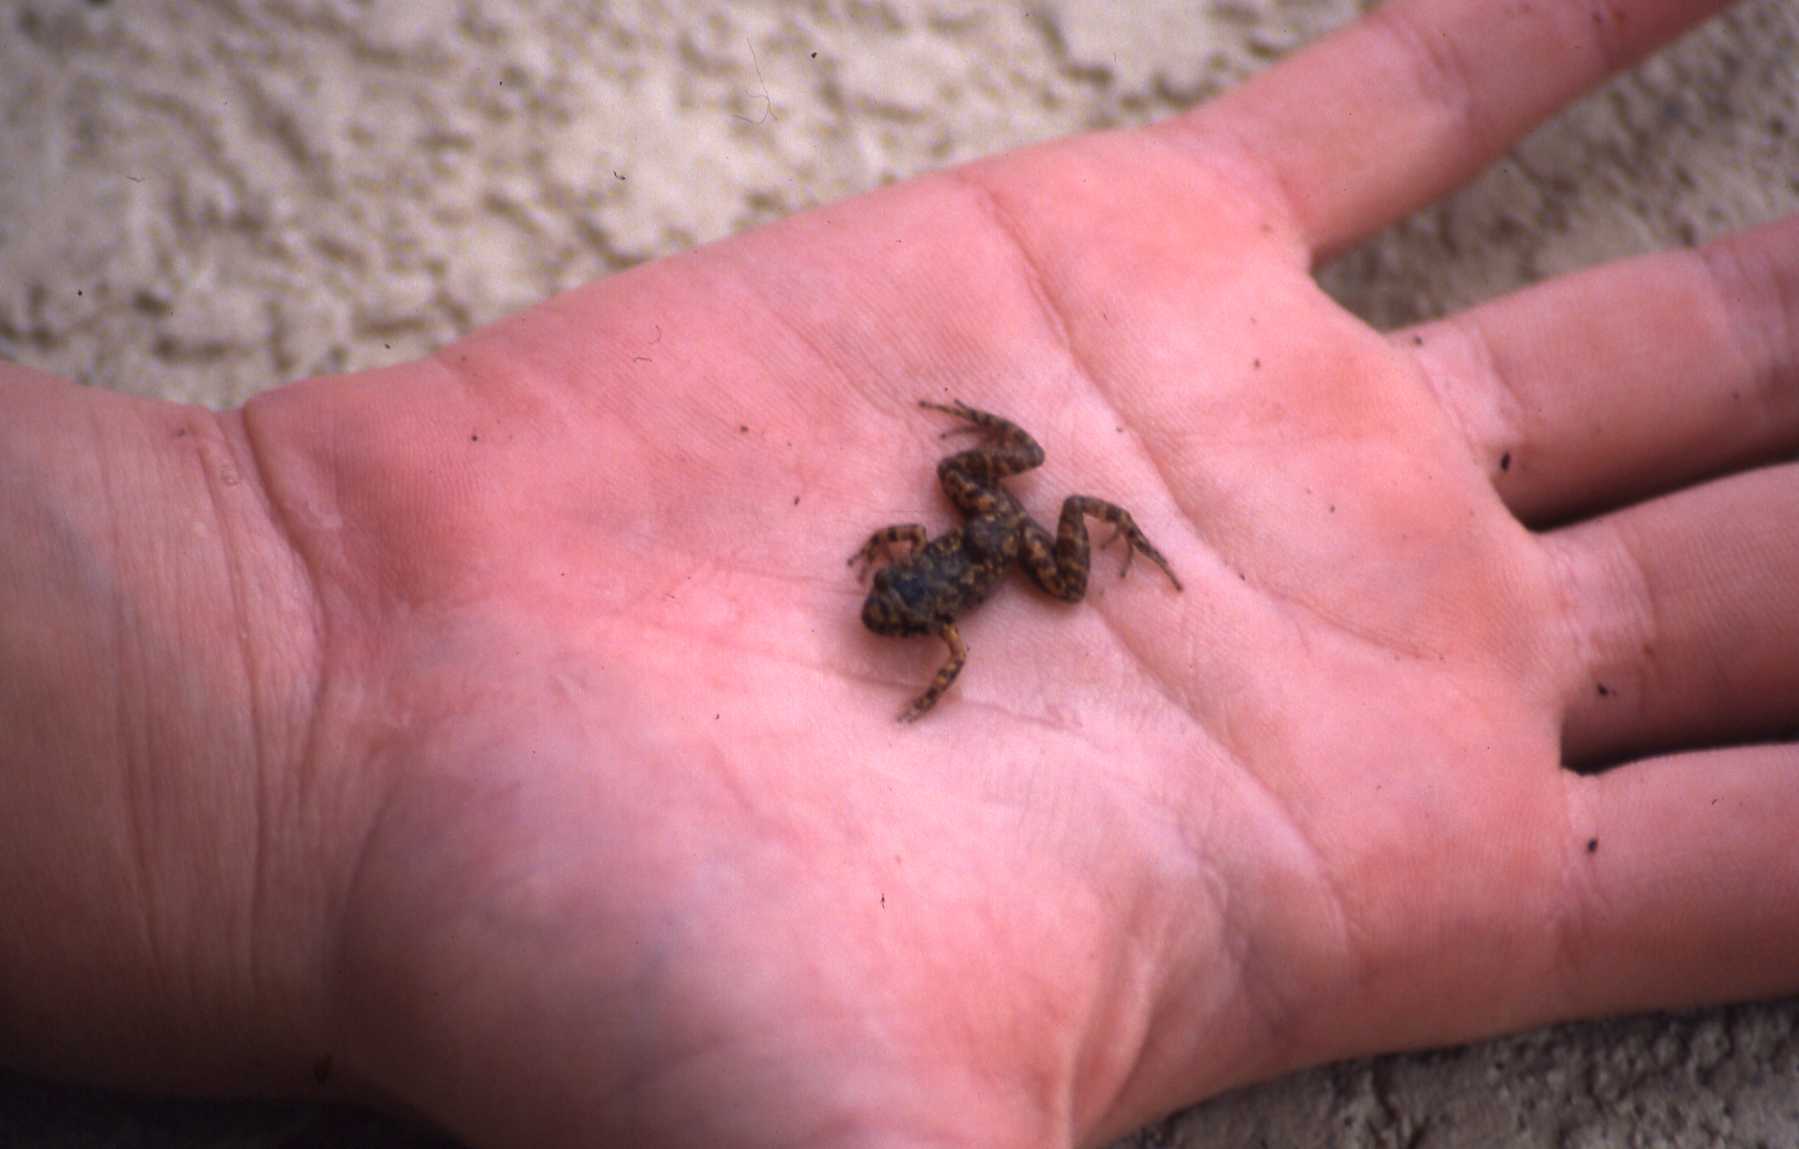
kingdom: Animalia
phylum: Chordata
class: Amphibia
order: Anura
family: Eleutherodactylidae
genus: Eleutherodactylus
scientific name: Eleutherodactylus planirostris
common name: Greenhouse frog
